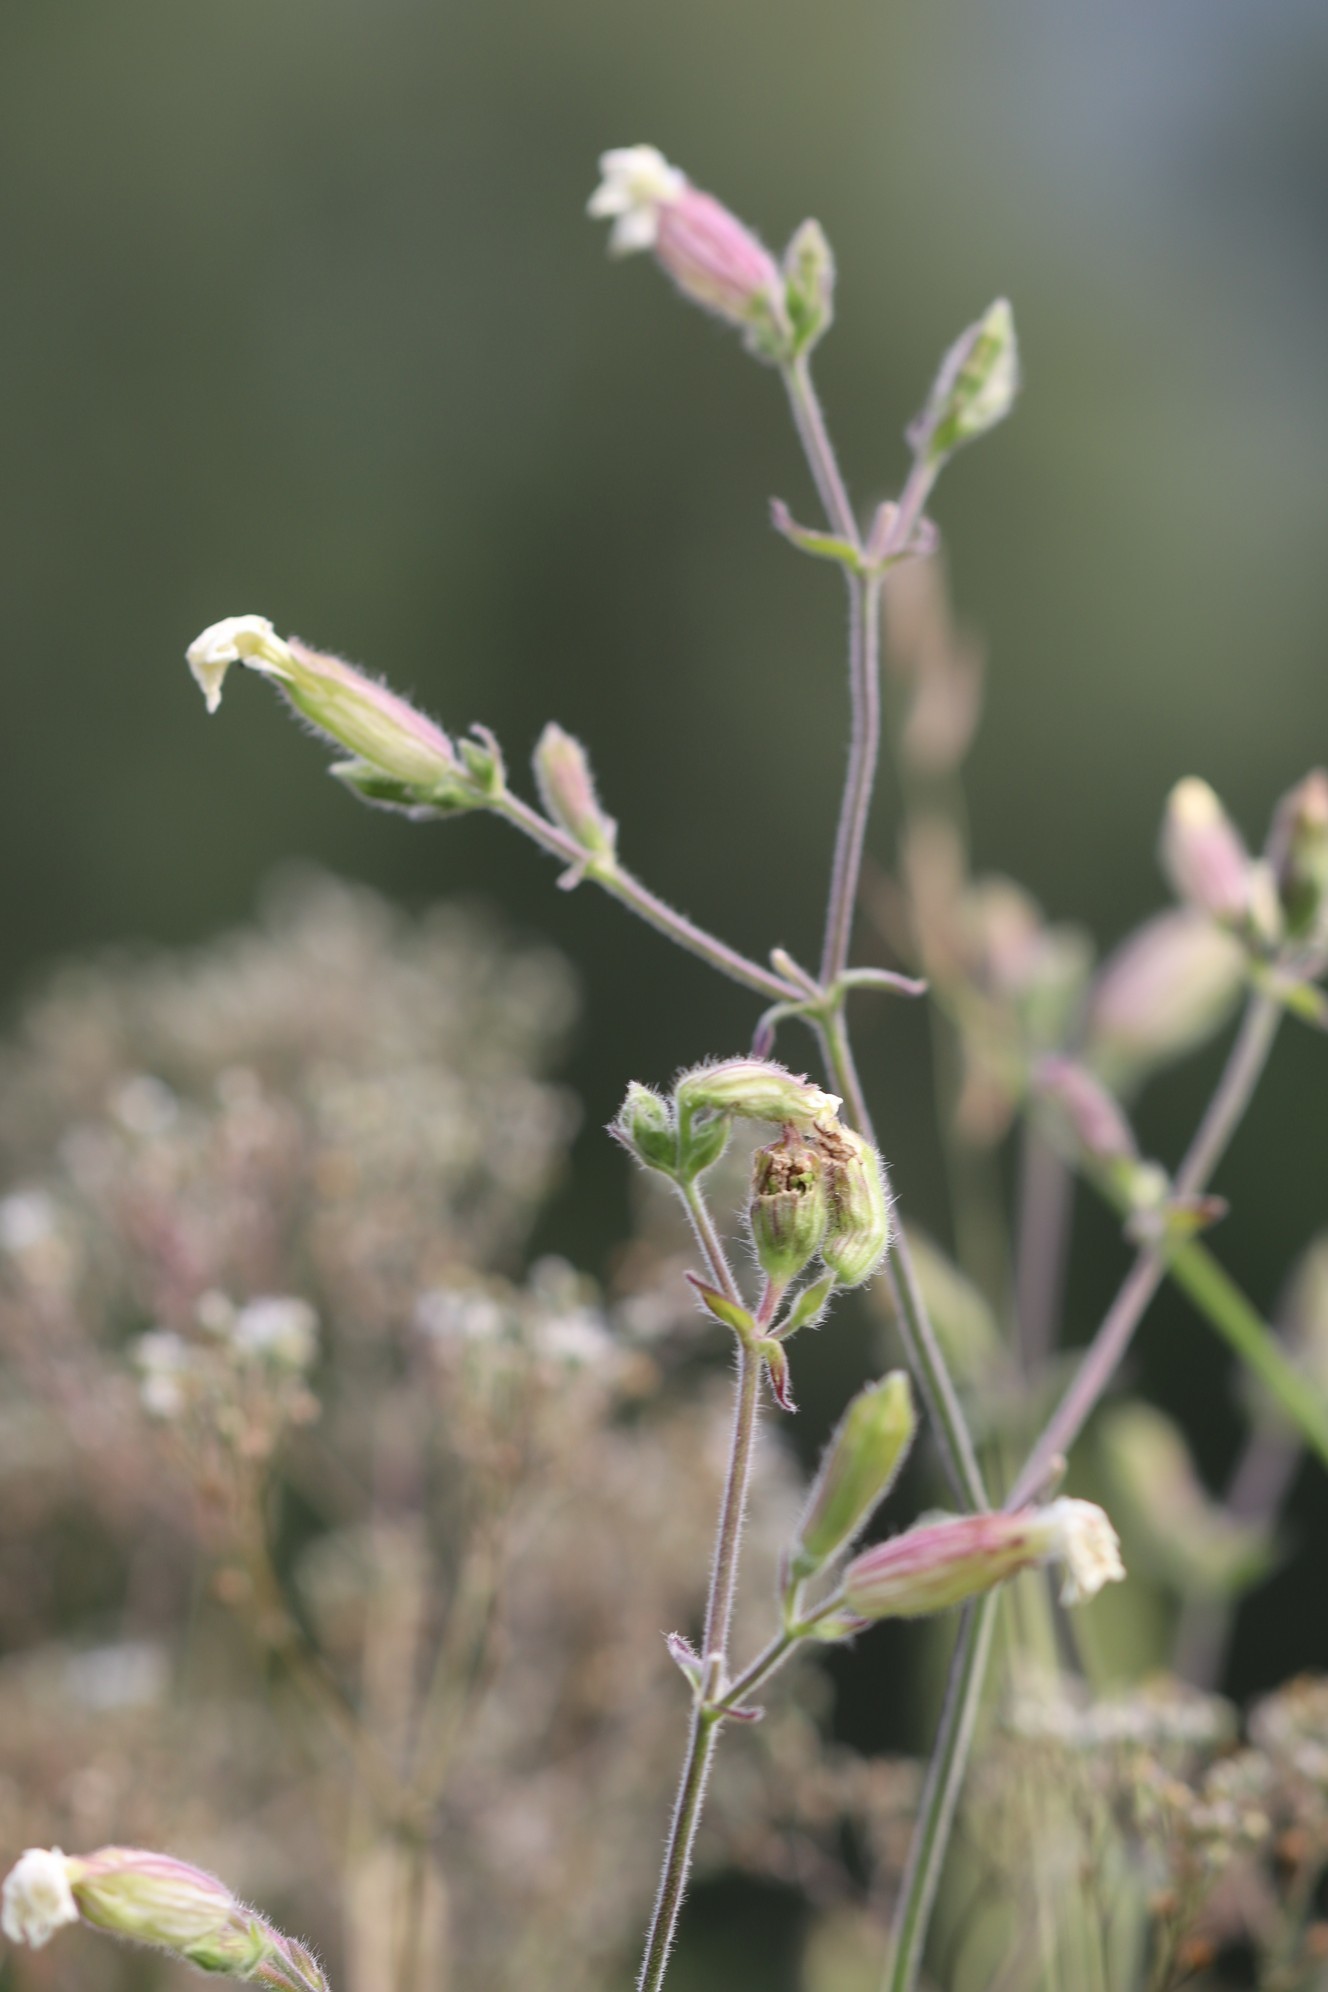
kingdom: Plantae
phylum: Tracheophyta
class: Magnoliopsida
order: Caryophyllales
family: Caryophyllaceae
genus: Silene
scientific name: Silene latifolia
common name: White campion
